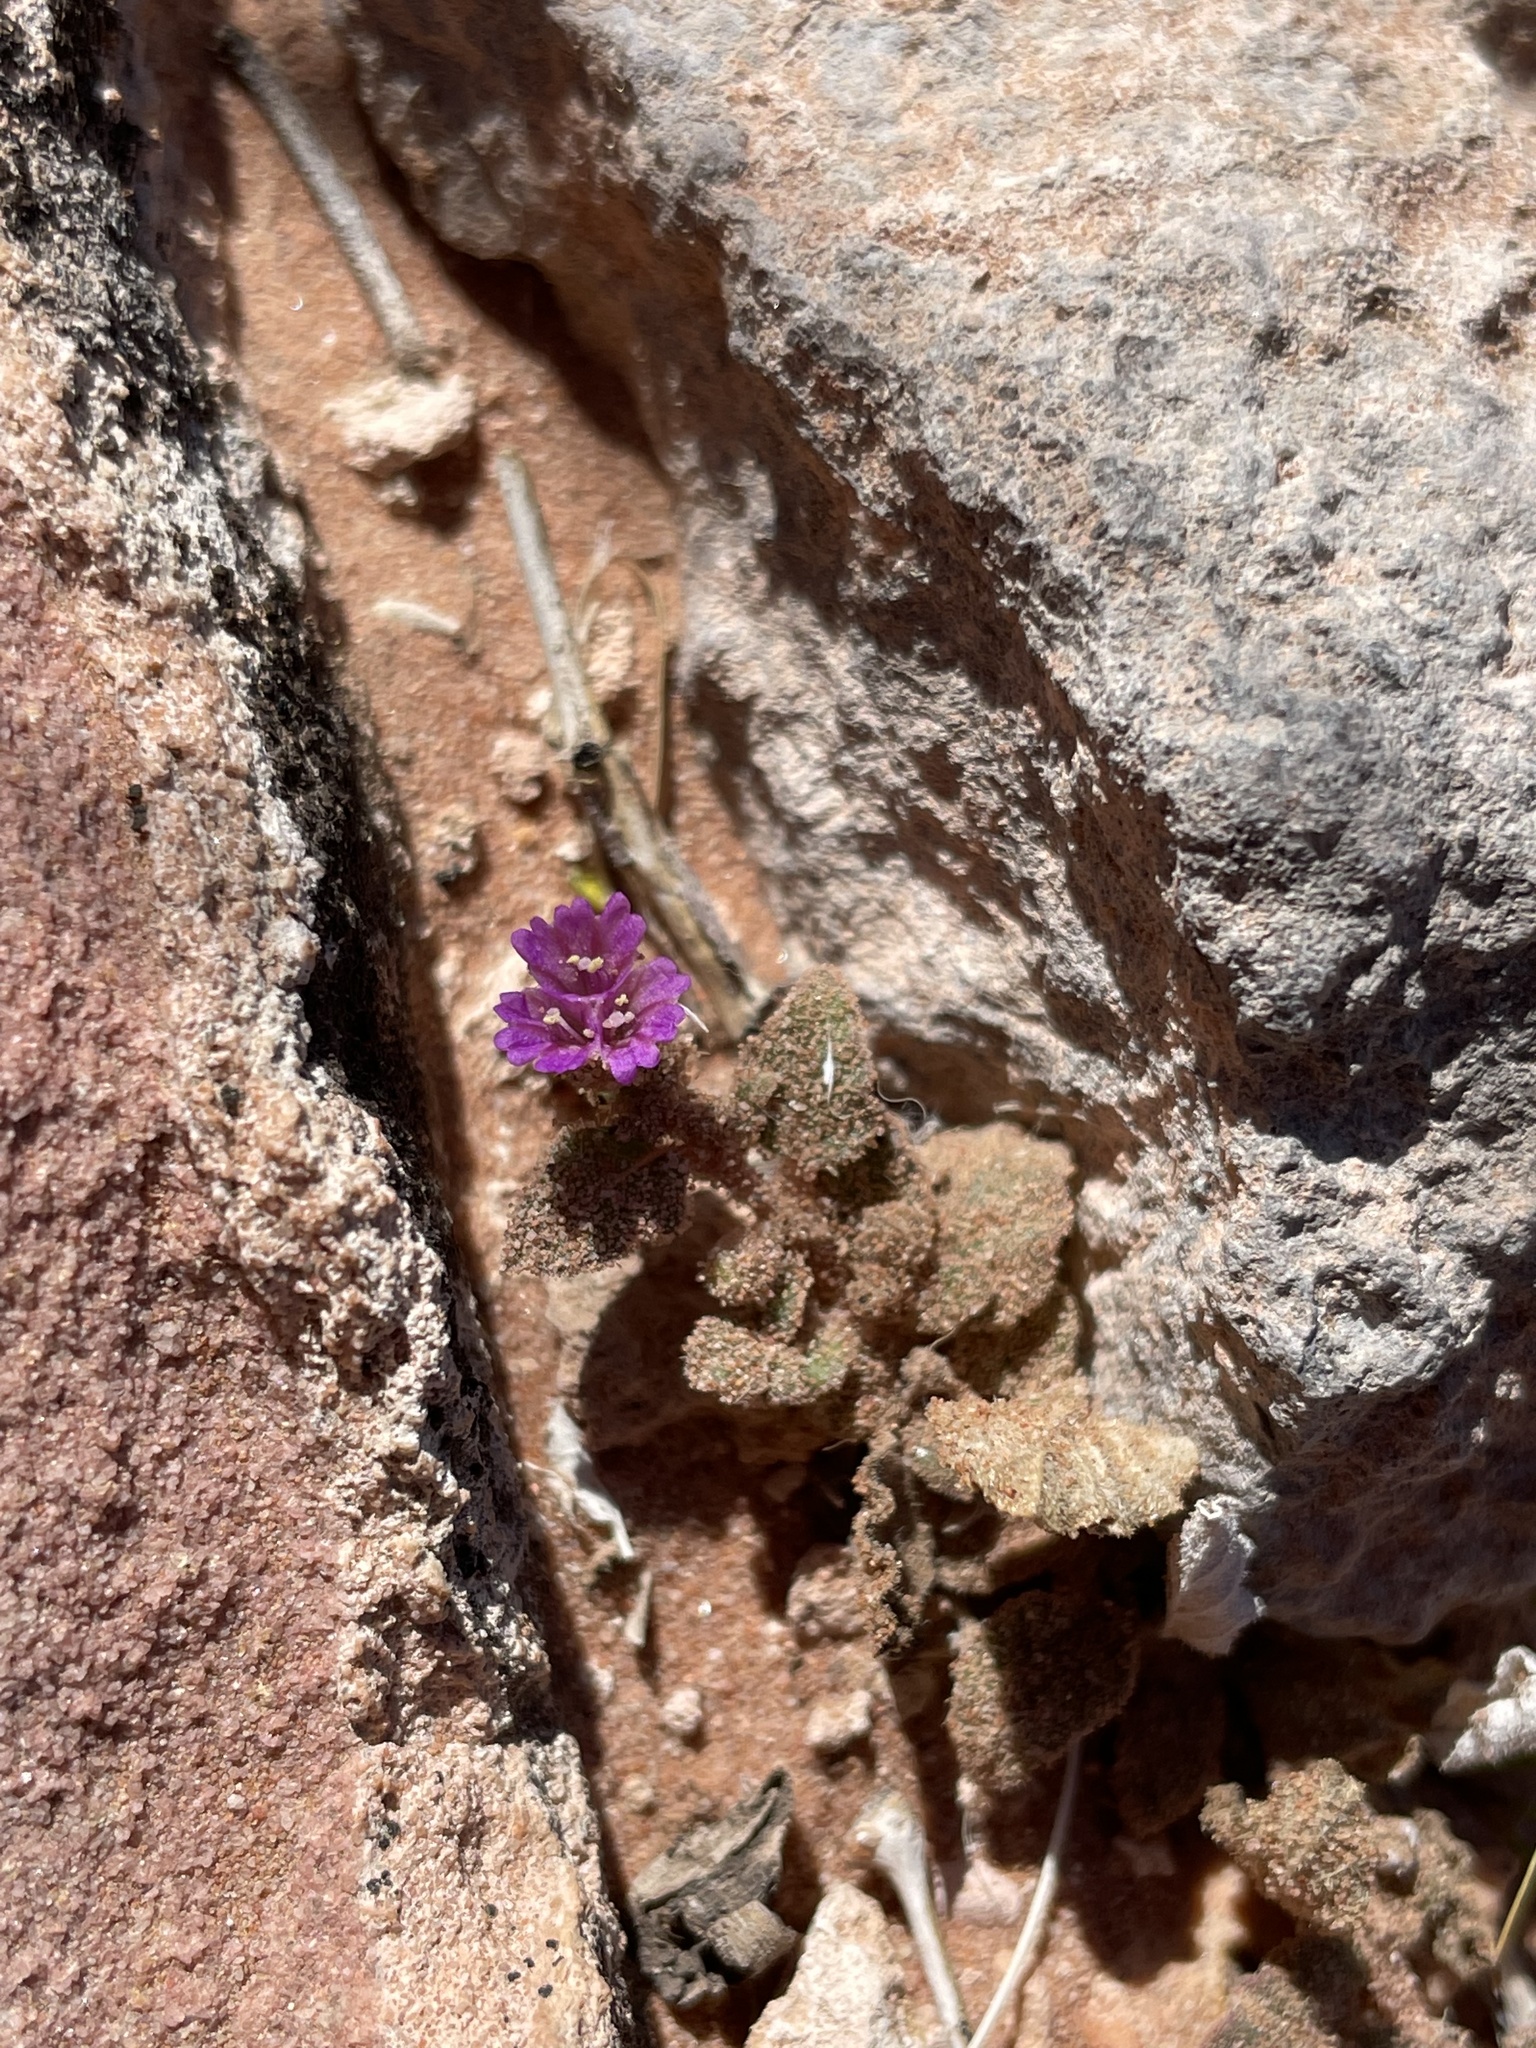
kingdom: Plantae
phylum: Tracheophyta
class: Magnoliopsida
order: Caryophyllales
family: Nyctaginaceae
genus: Allionia
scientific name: Allionia incarnata
